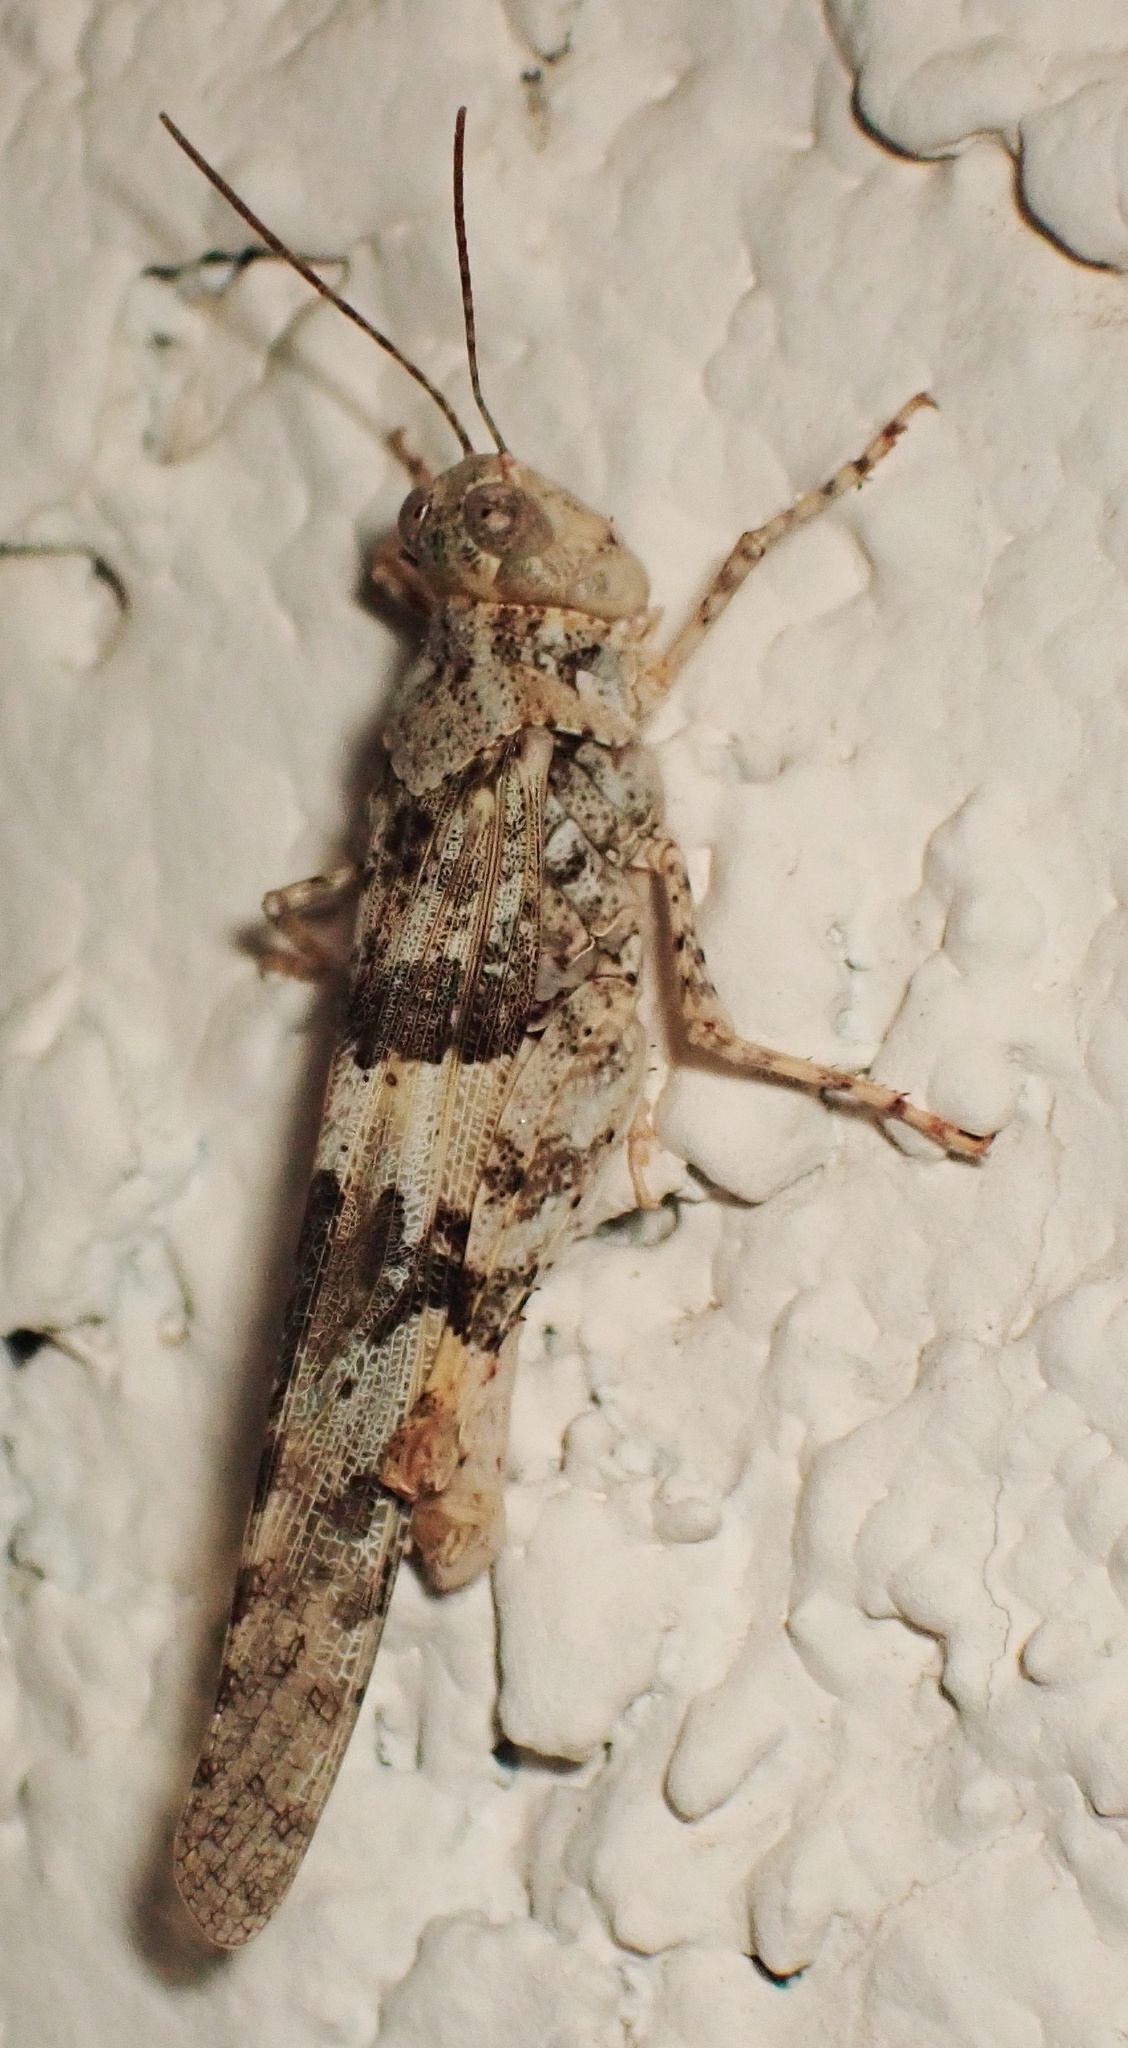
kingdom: Animalia
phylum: Arthropoda
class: Insecta
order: Orthoptera
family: Acrididae
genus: Trimerotropis
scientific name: Trimerotropis pallidipennis
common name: Pallid-winged grasshopper
